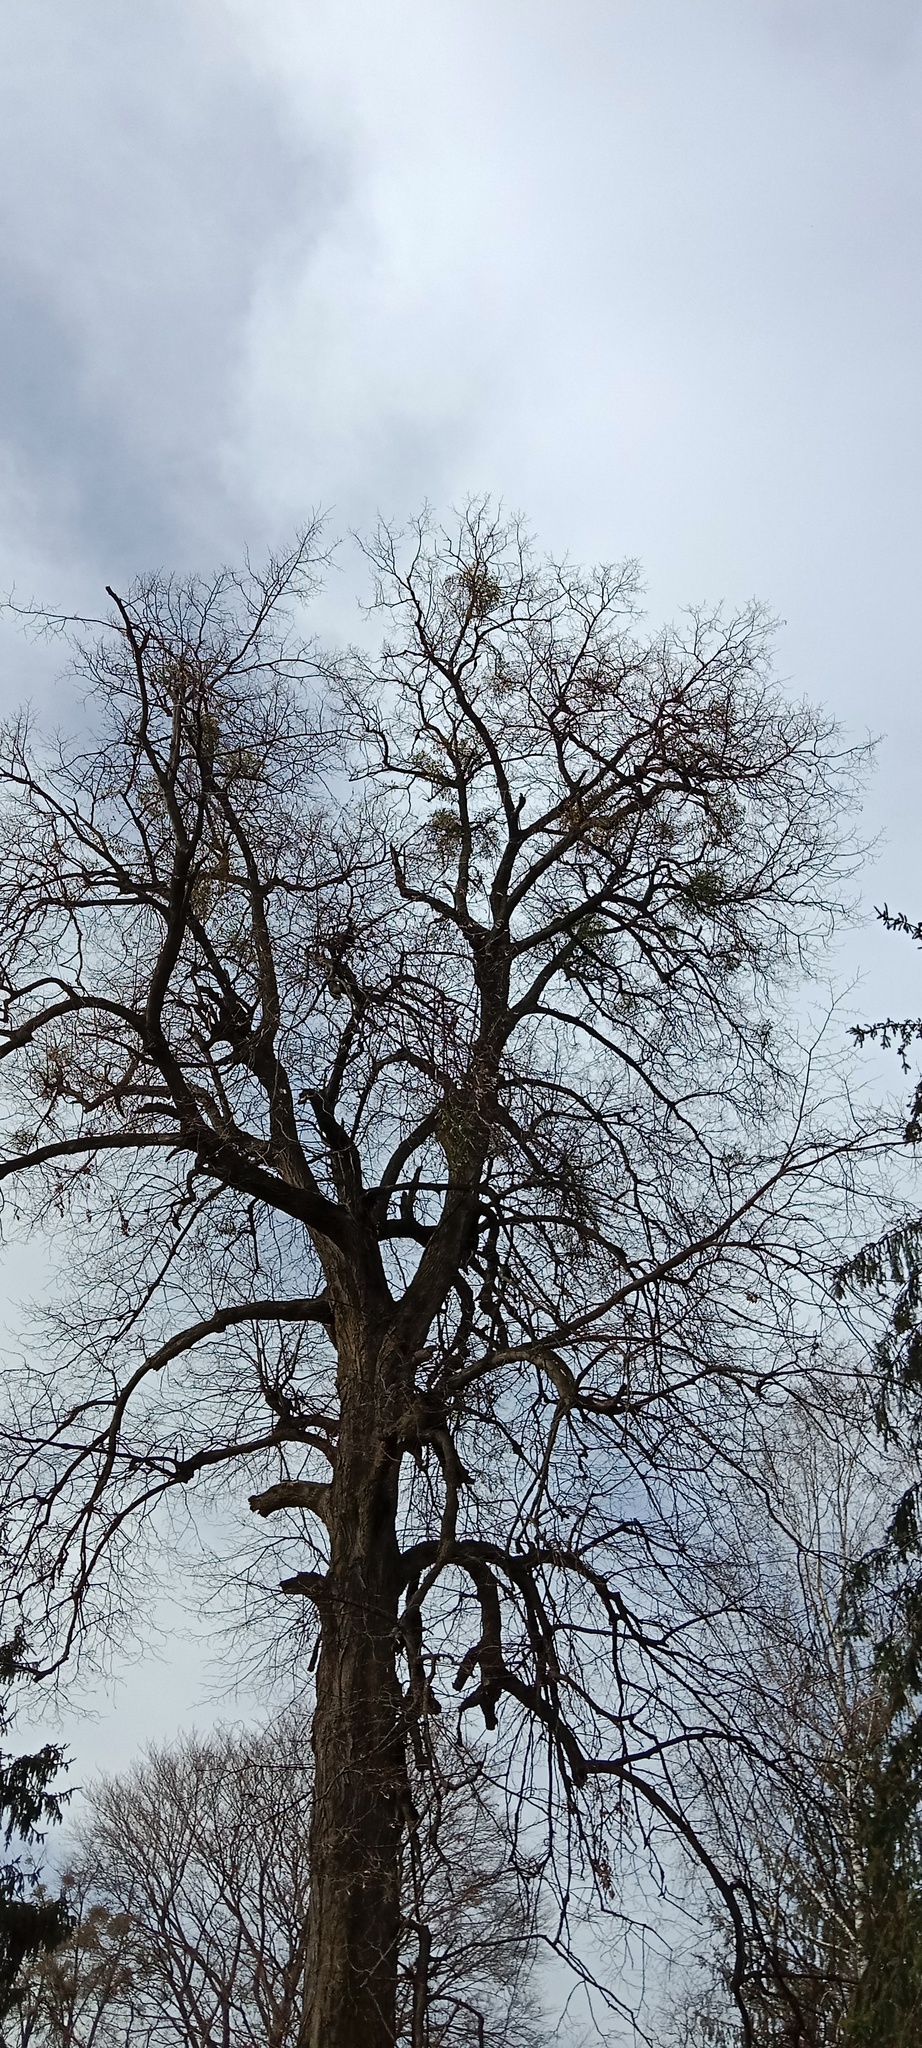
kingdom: Plantae
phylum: Tracheophyta
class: Magnoliopsida
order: Santalales
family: Viscaceae
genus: Viscum
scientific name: Viscum album
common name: Mistletoe
